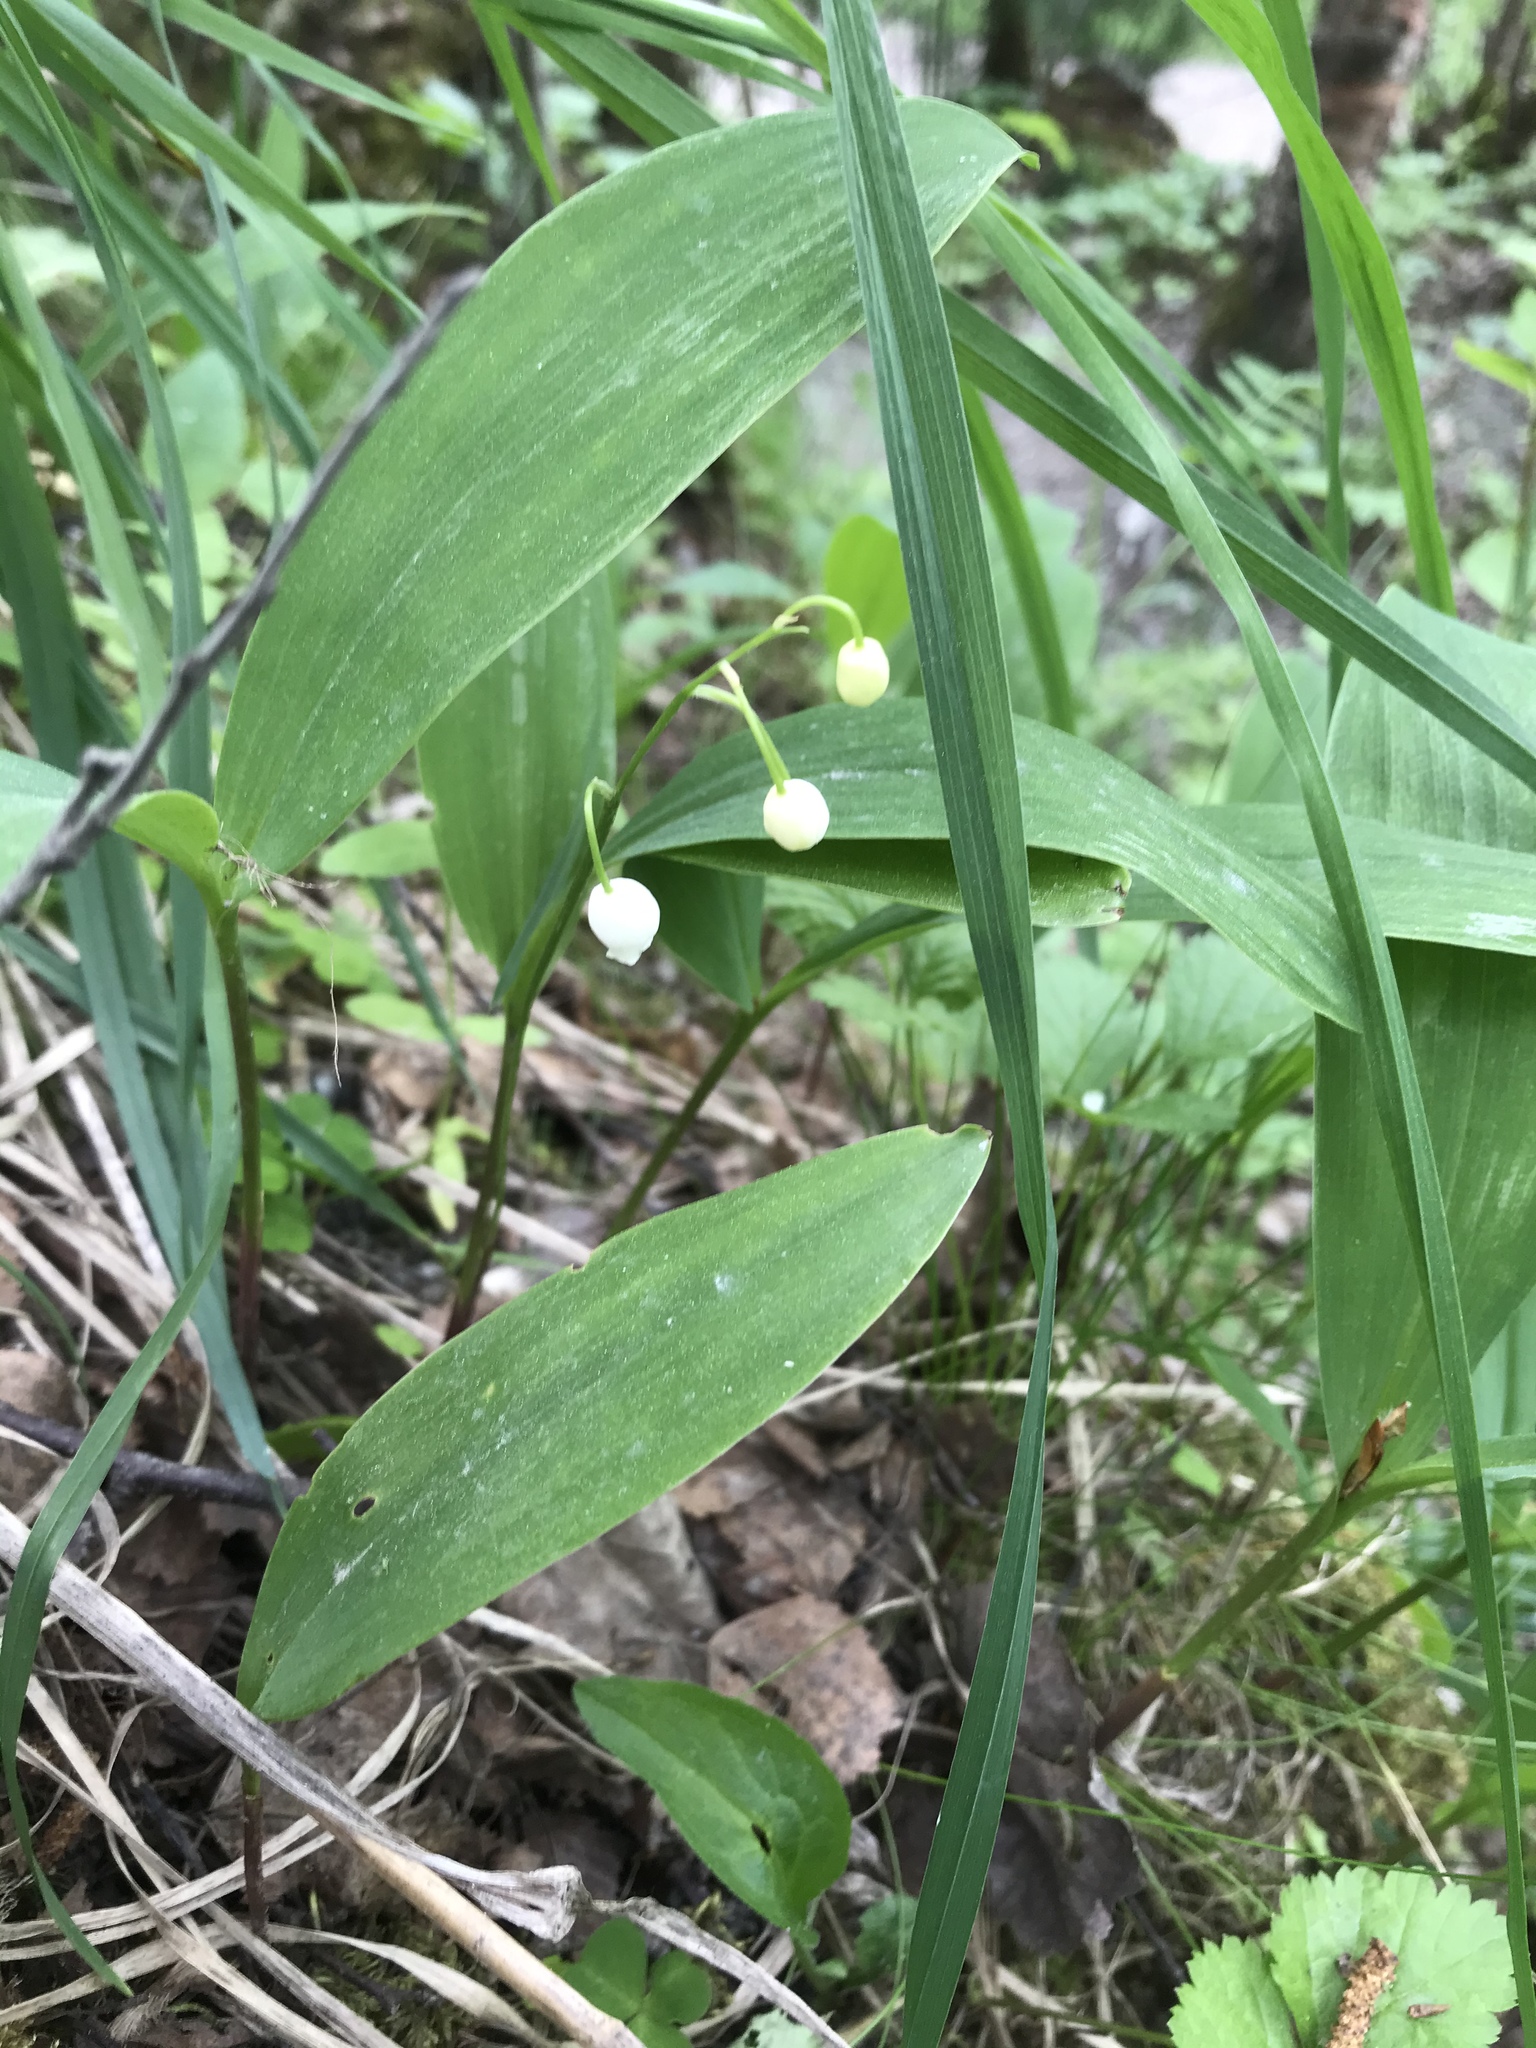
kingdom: Plantae
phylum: Tracheophyta
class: Liliopsida
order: Asparagales
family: Asparagaceae
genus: Convallaria
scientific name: Convallaria majalis
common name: Lily-of-the-valley
